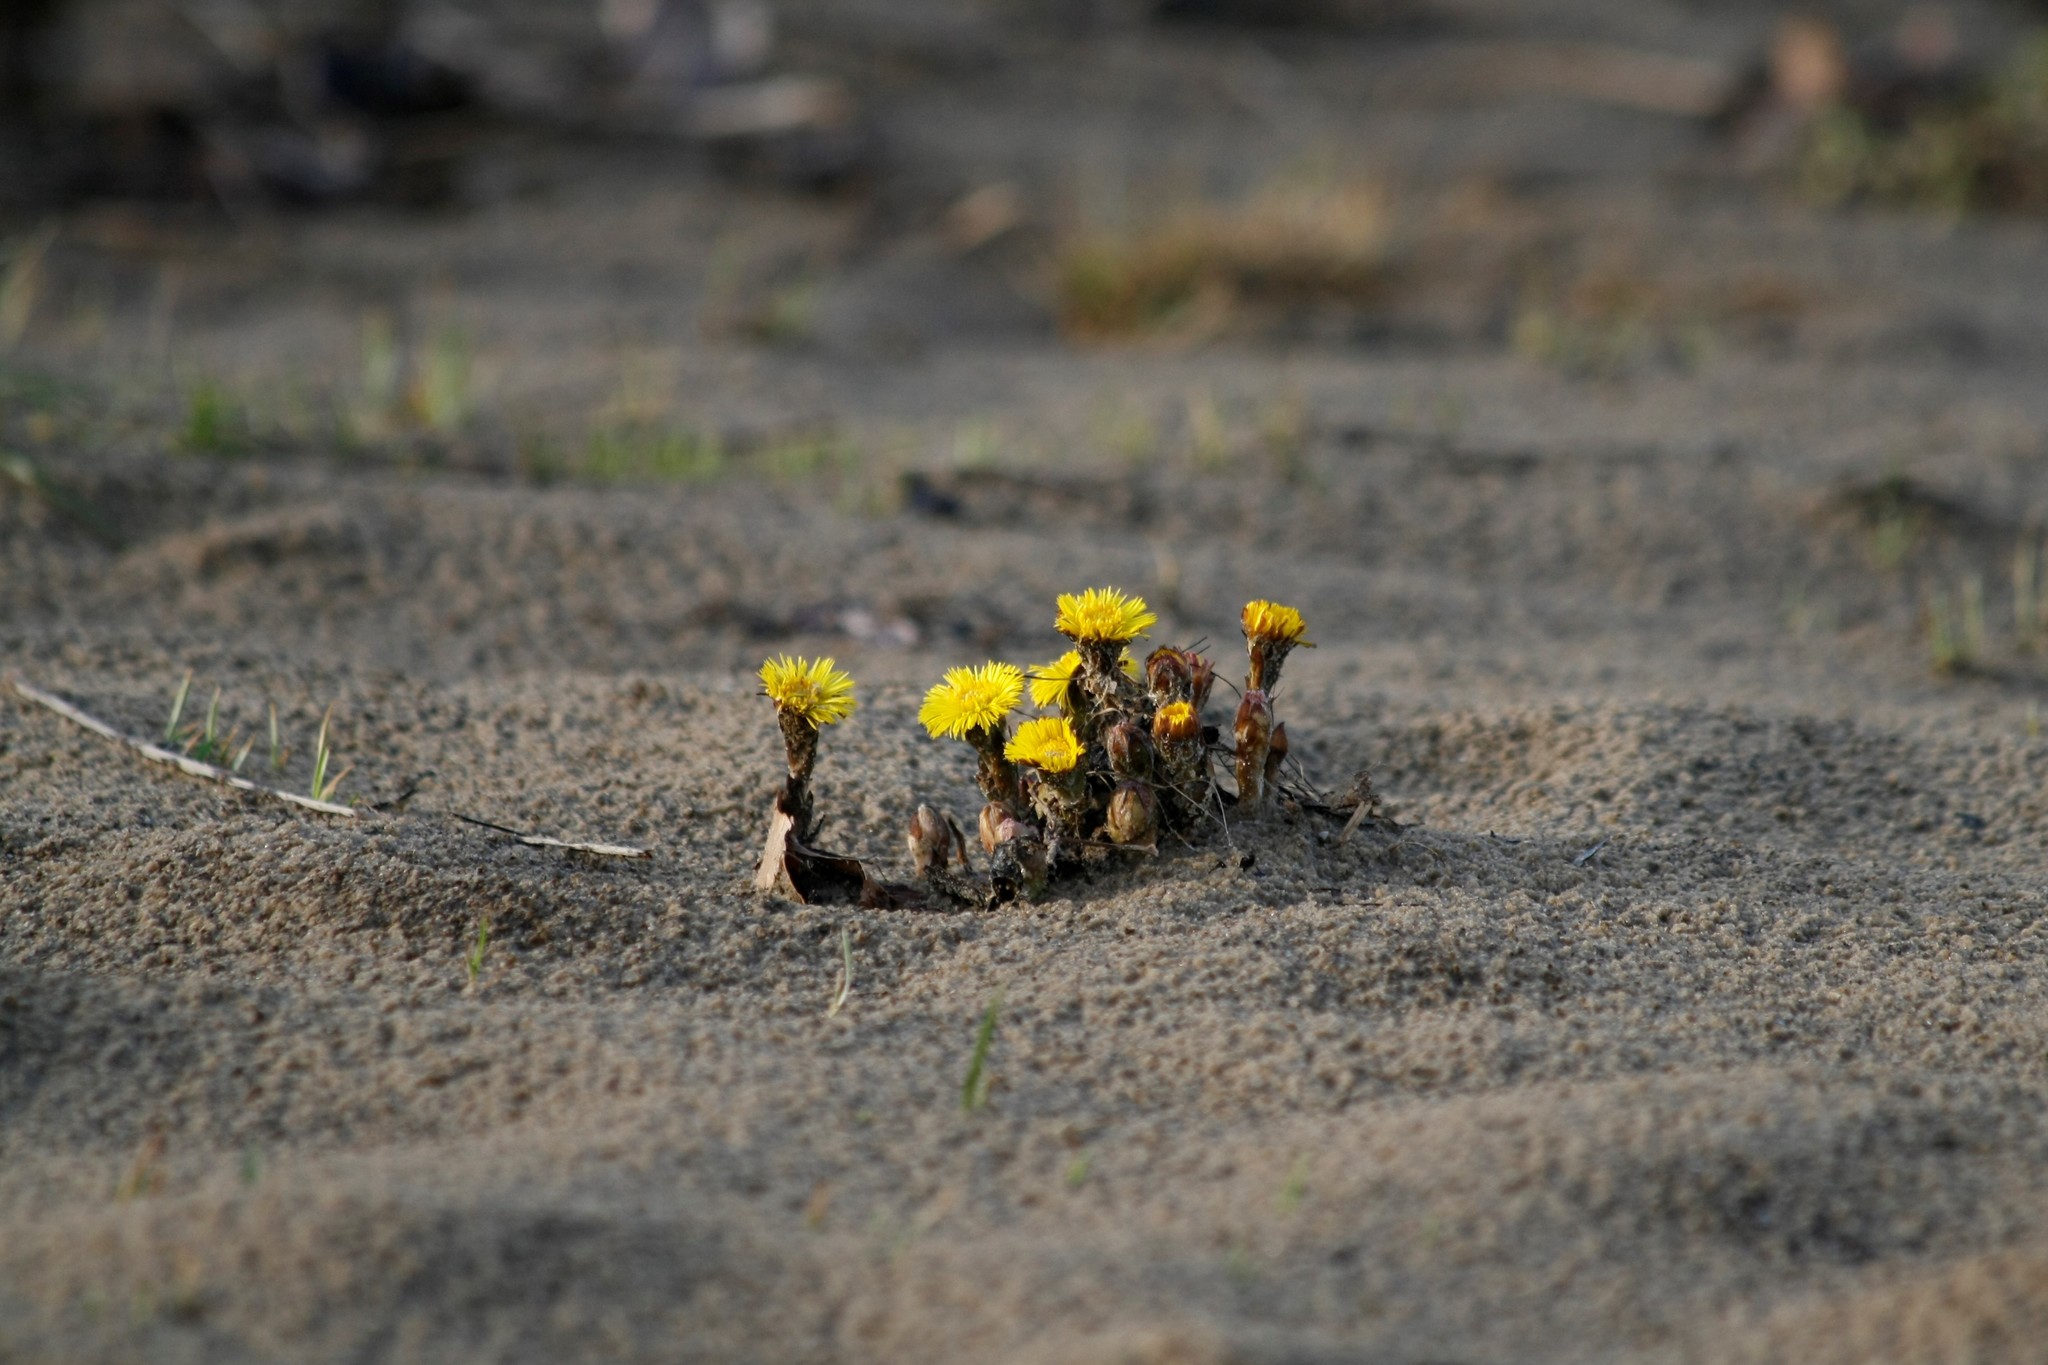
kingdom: Plantae
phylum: Tracheophyta
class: Magnoliopsida
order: Asterales
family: Asteraceae
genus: Tussilago
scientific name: Tussilago farfara
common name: Coltsfoot
